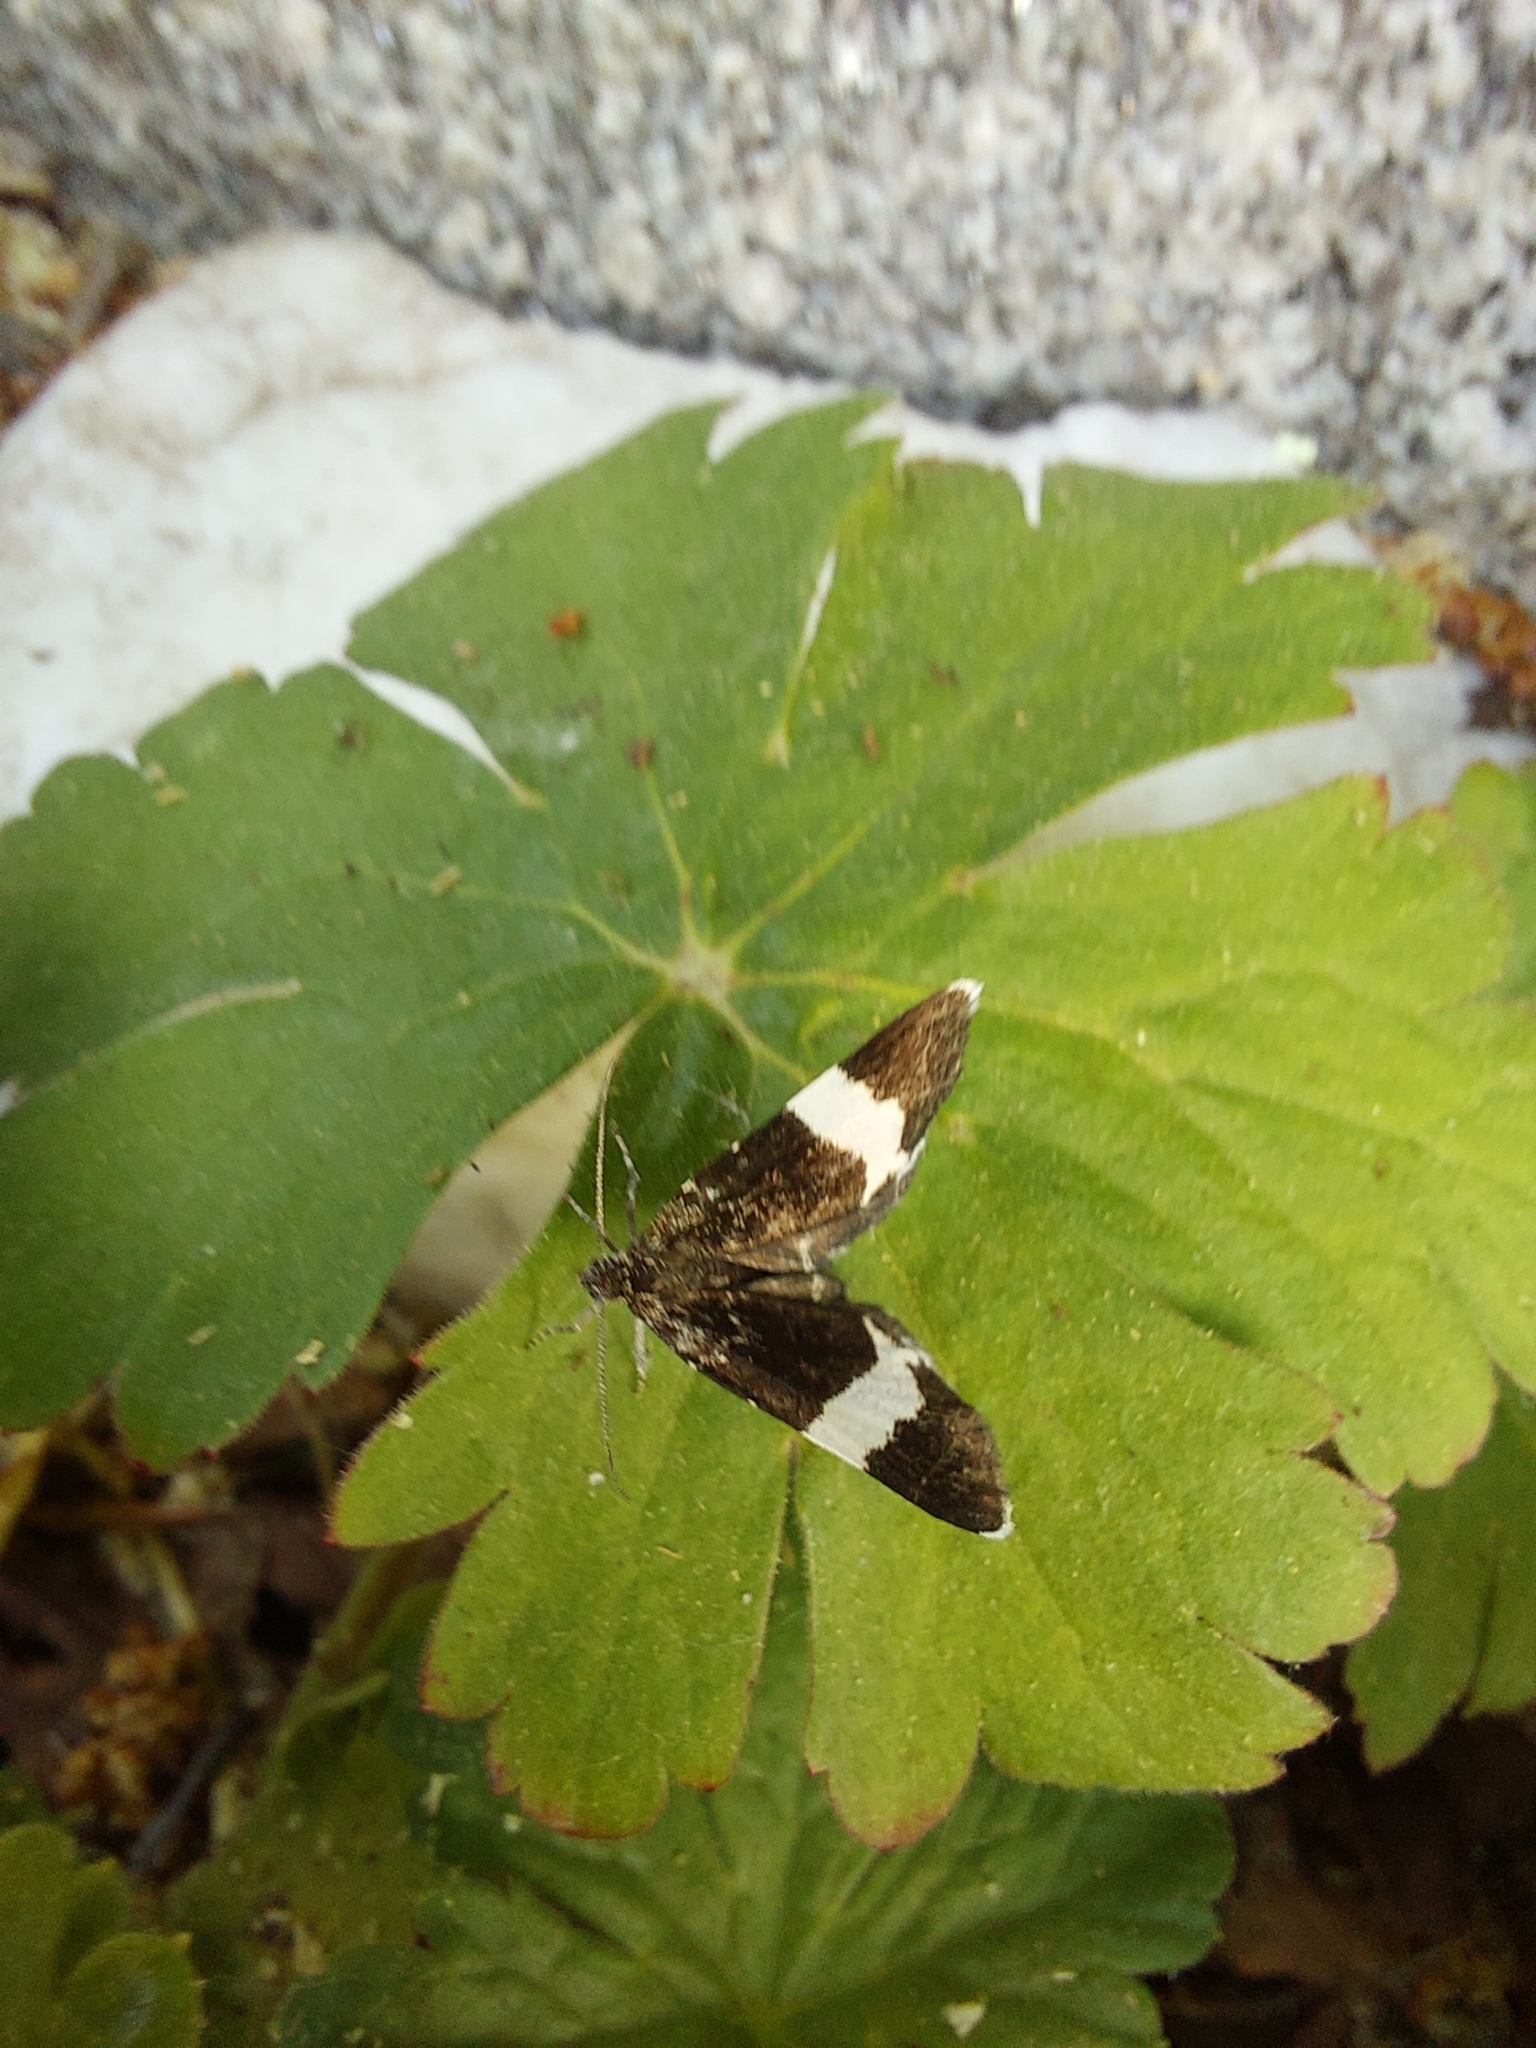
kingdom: Animalia
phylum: Arthropoda
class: Insecta
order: Lepidoptera
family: Geometridae
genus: Trichodezia
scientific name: Trichodezia albovittata
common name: White striped black
